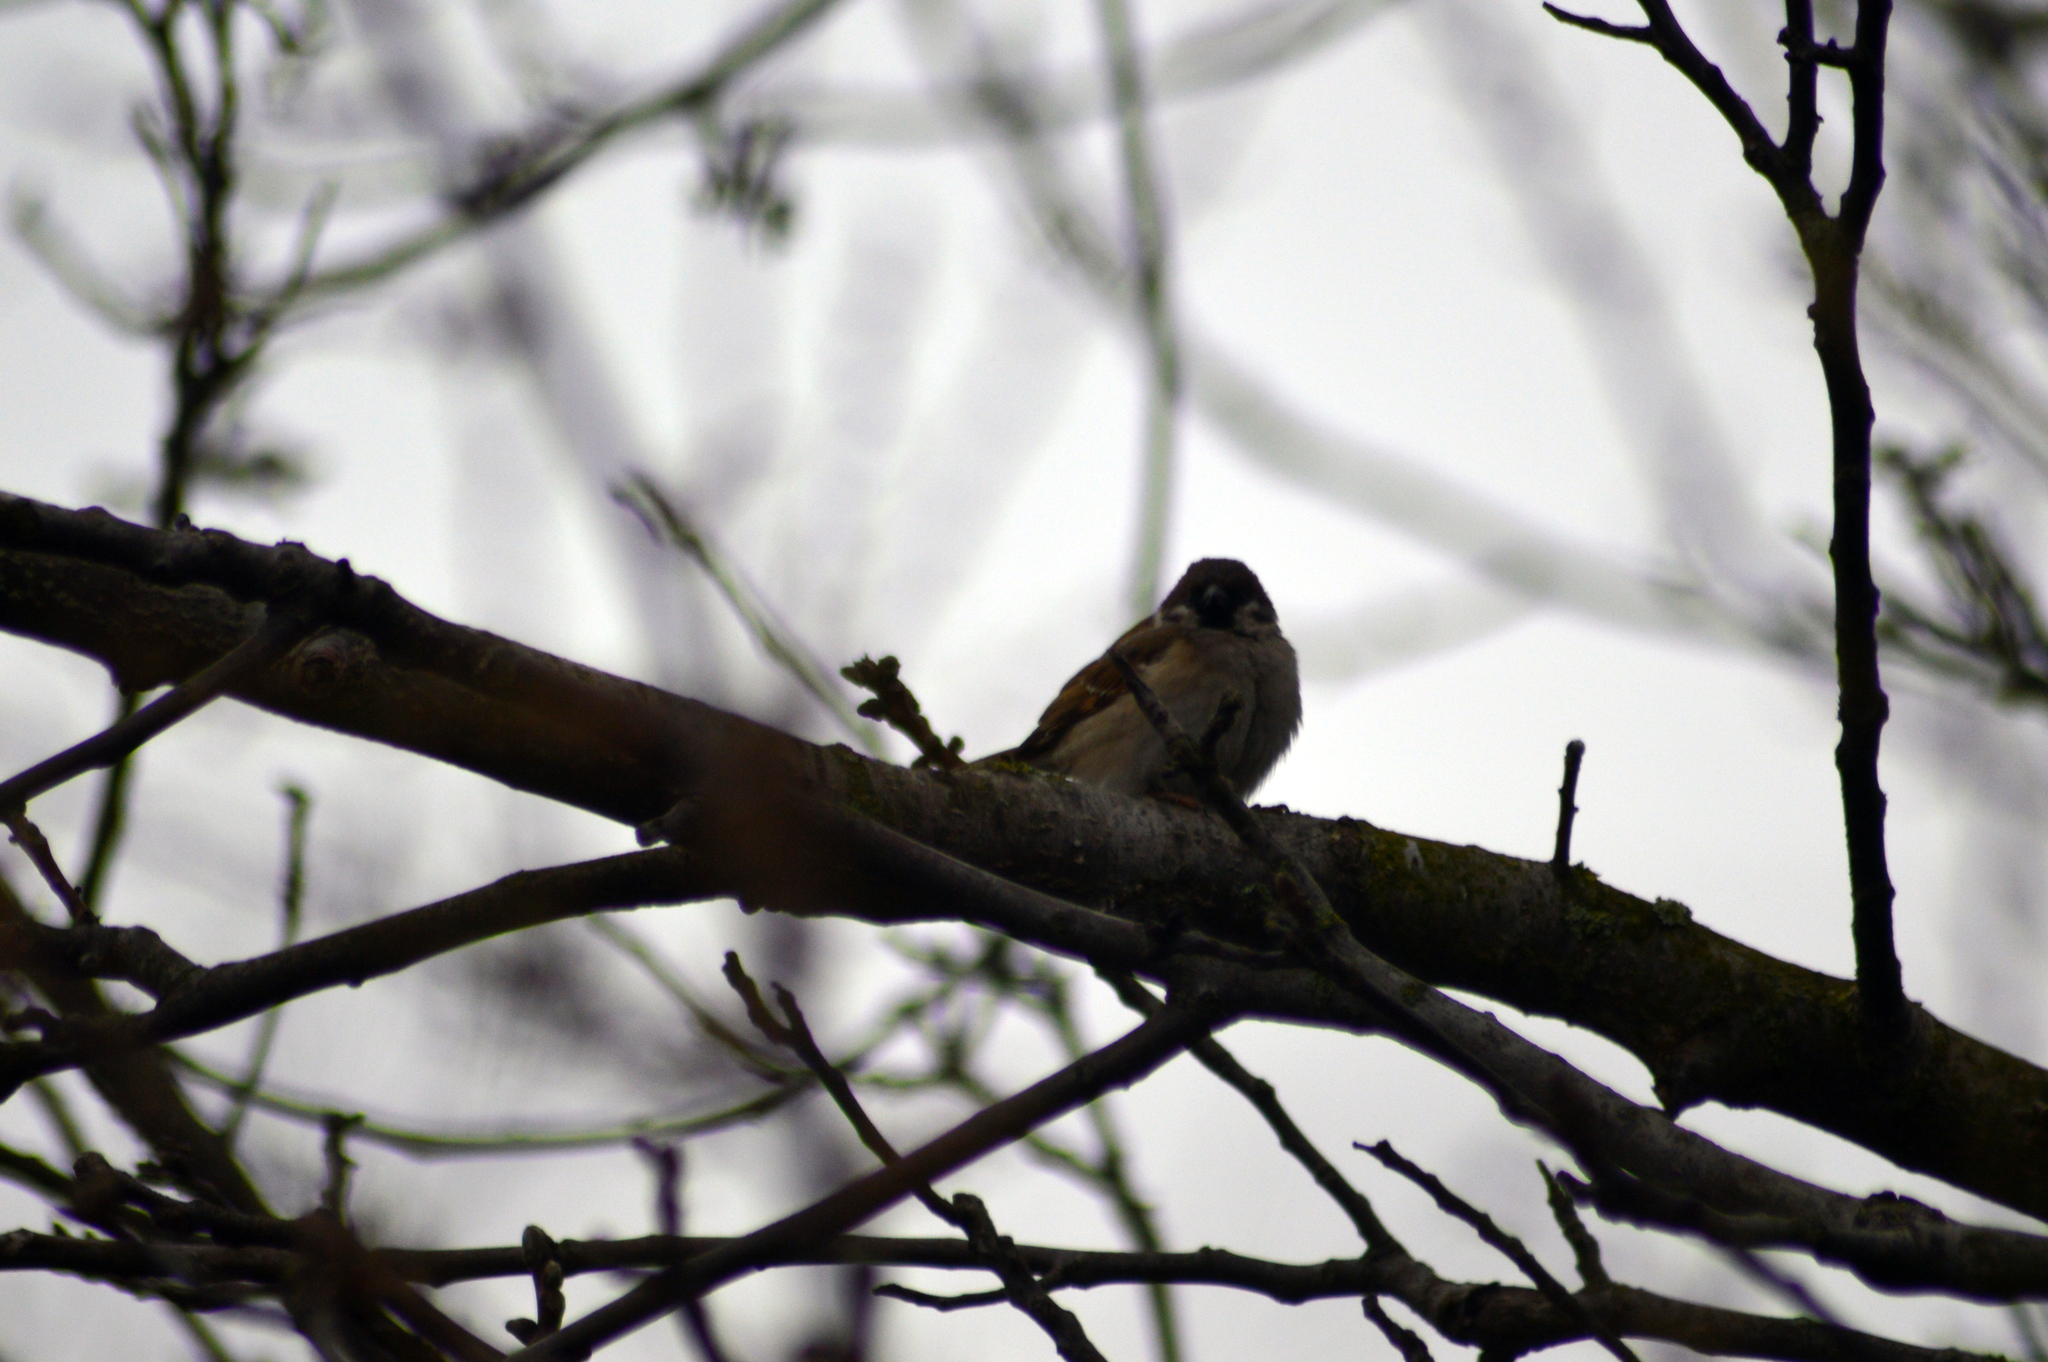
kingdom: Animalia
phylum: Chordata
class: Aves
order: Passeriformes
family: Passeridae
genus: Passer
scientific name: Passer montanus
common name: Eurasian tree sparrow
